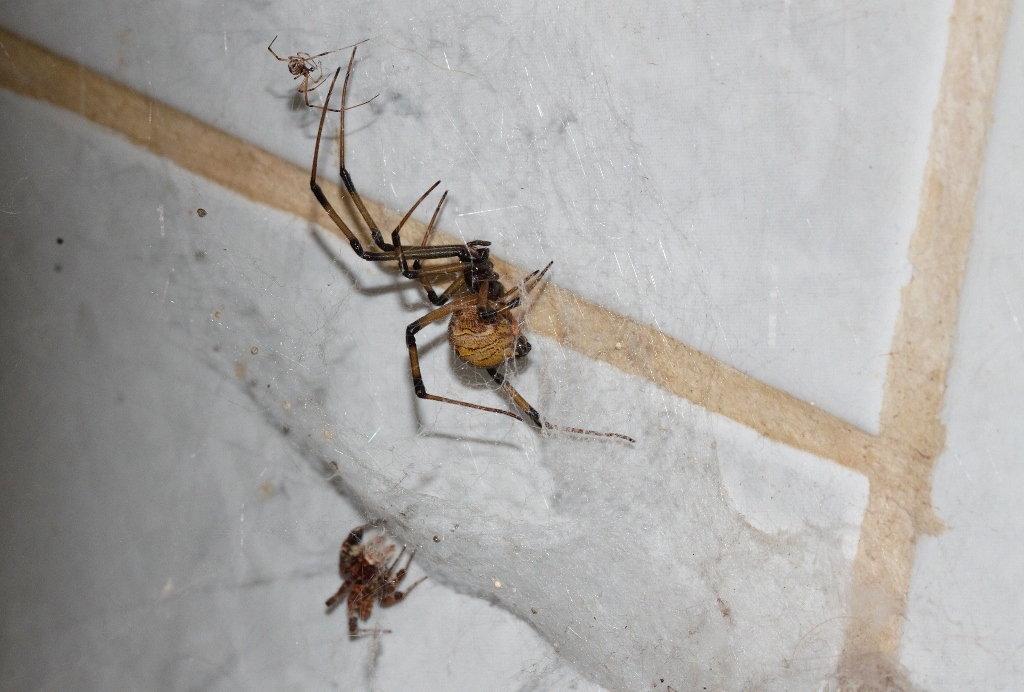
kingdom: Animalia
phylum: Arthropoda
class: Arachnida
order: Araneae
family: Salticidae
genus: Portia
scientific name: Portia schultzi
